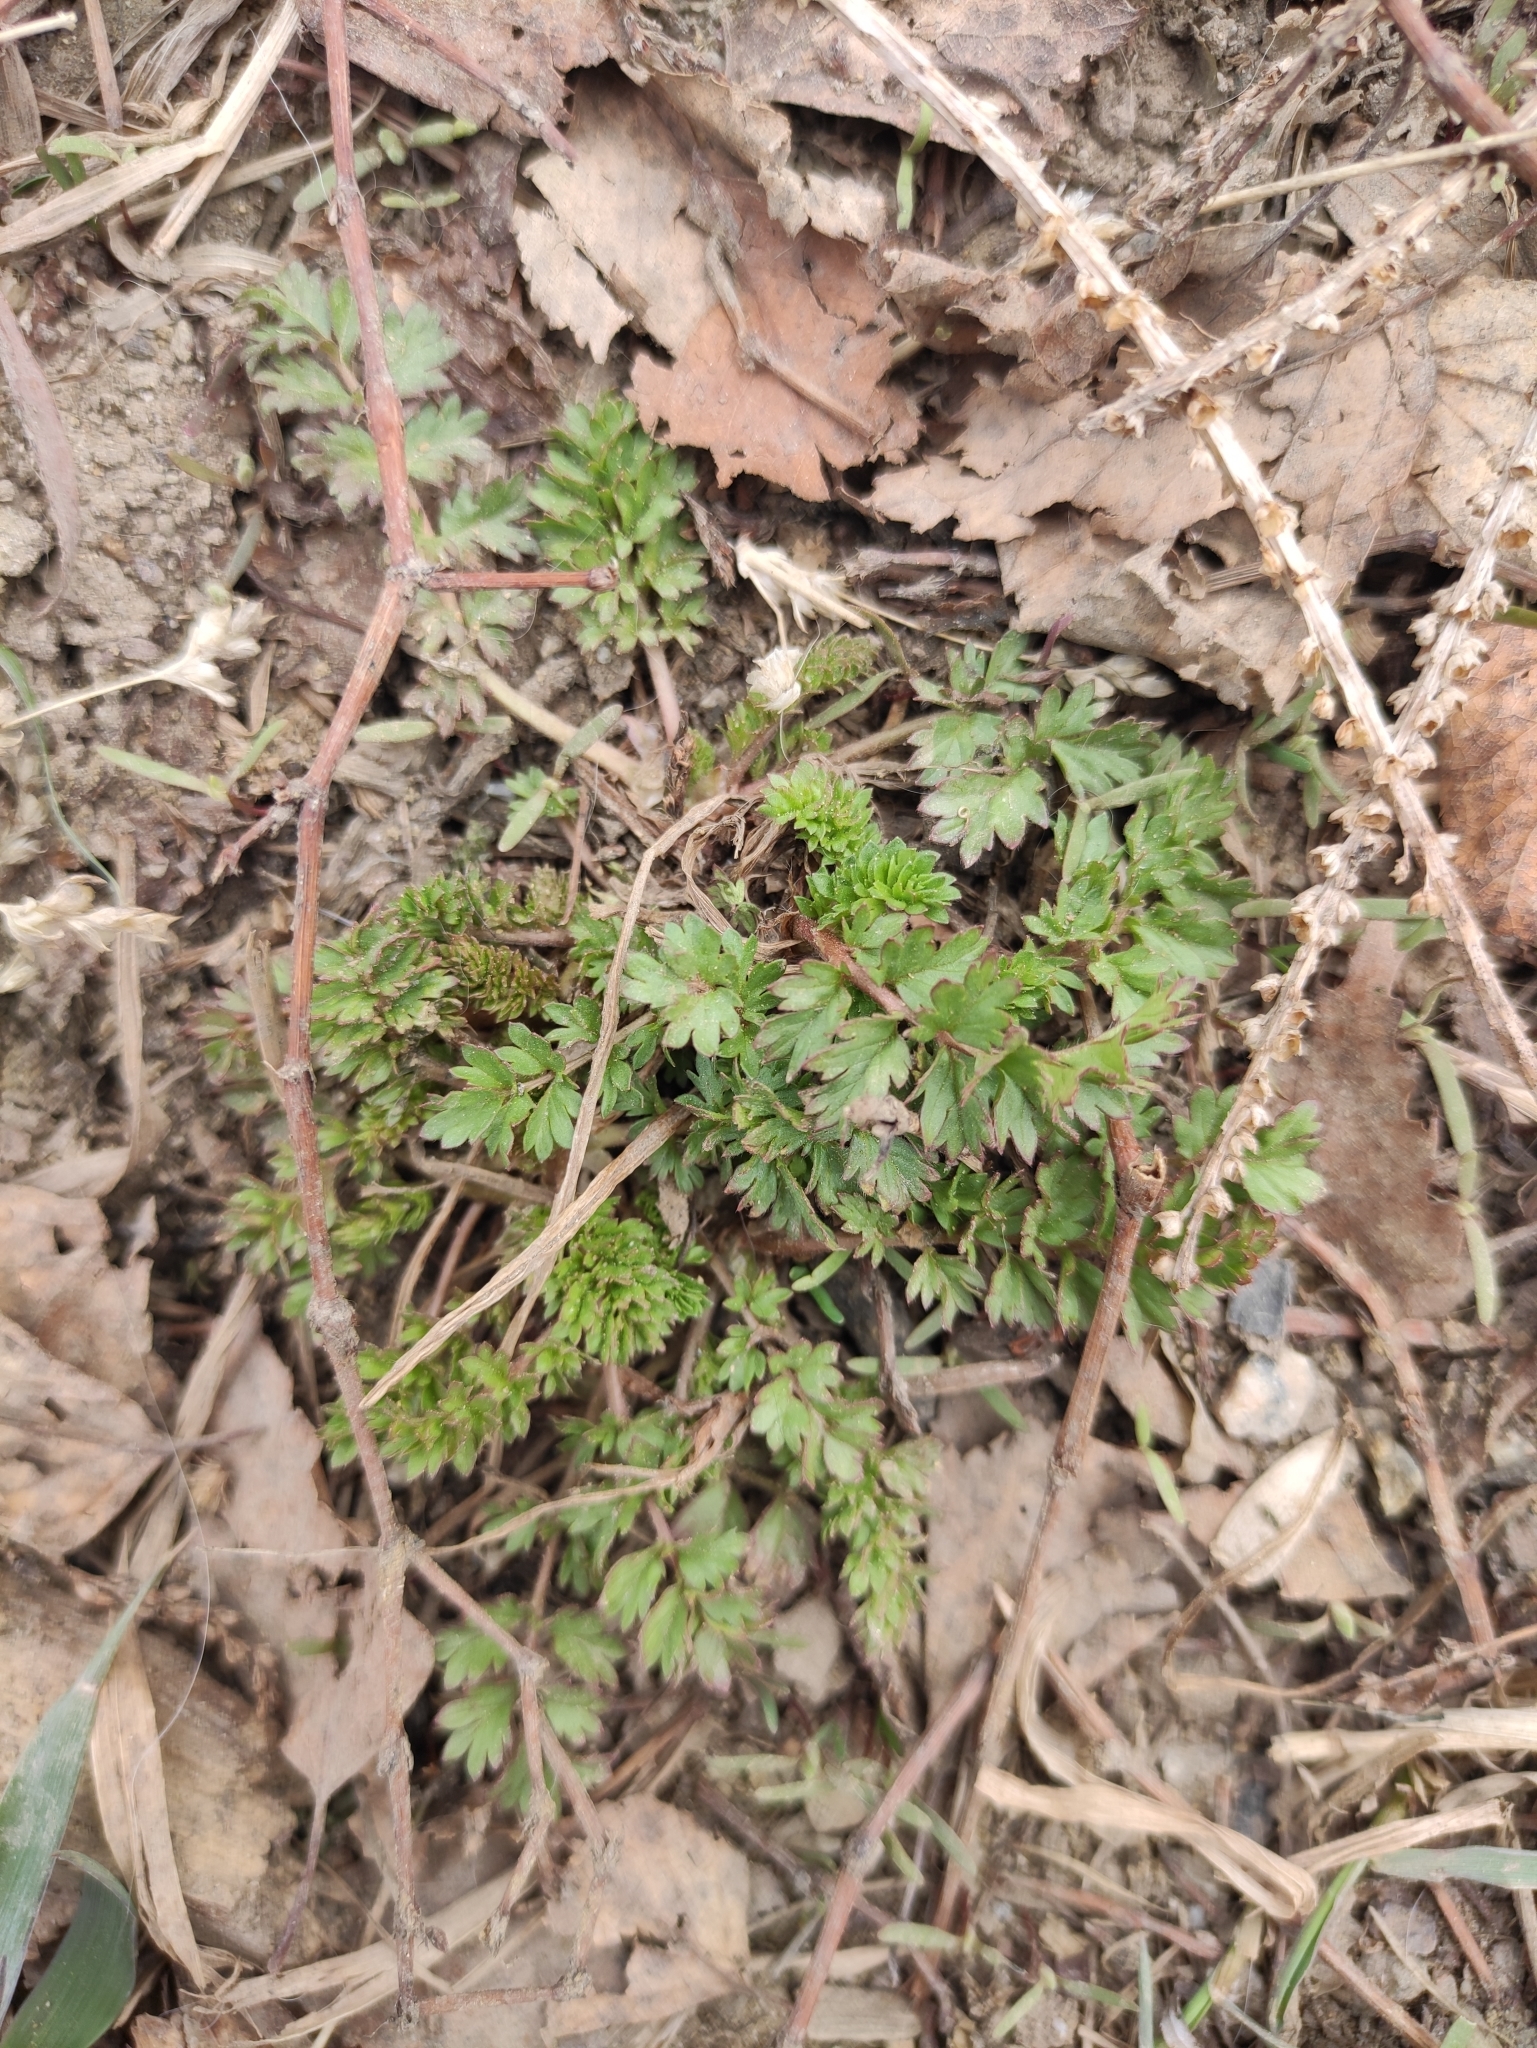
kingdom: Plantae
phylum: Tracheophyta
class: Magnoliopsida
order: Rosales
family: Rosaceae
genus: Potentilla
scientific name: Potentilla supina
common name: Prostrate cinquefoil
